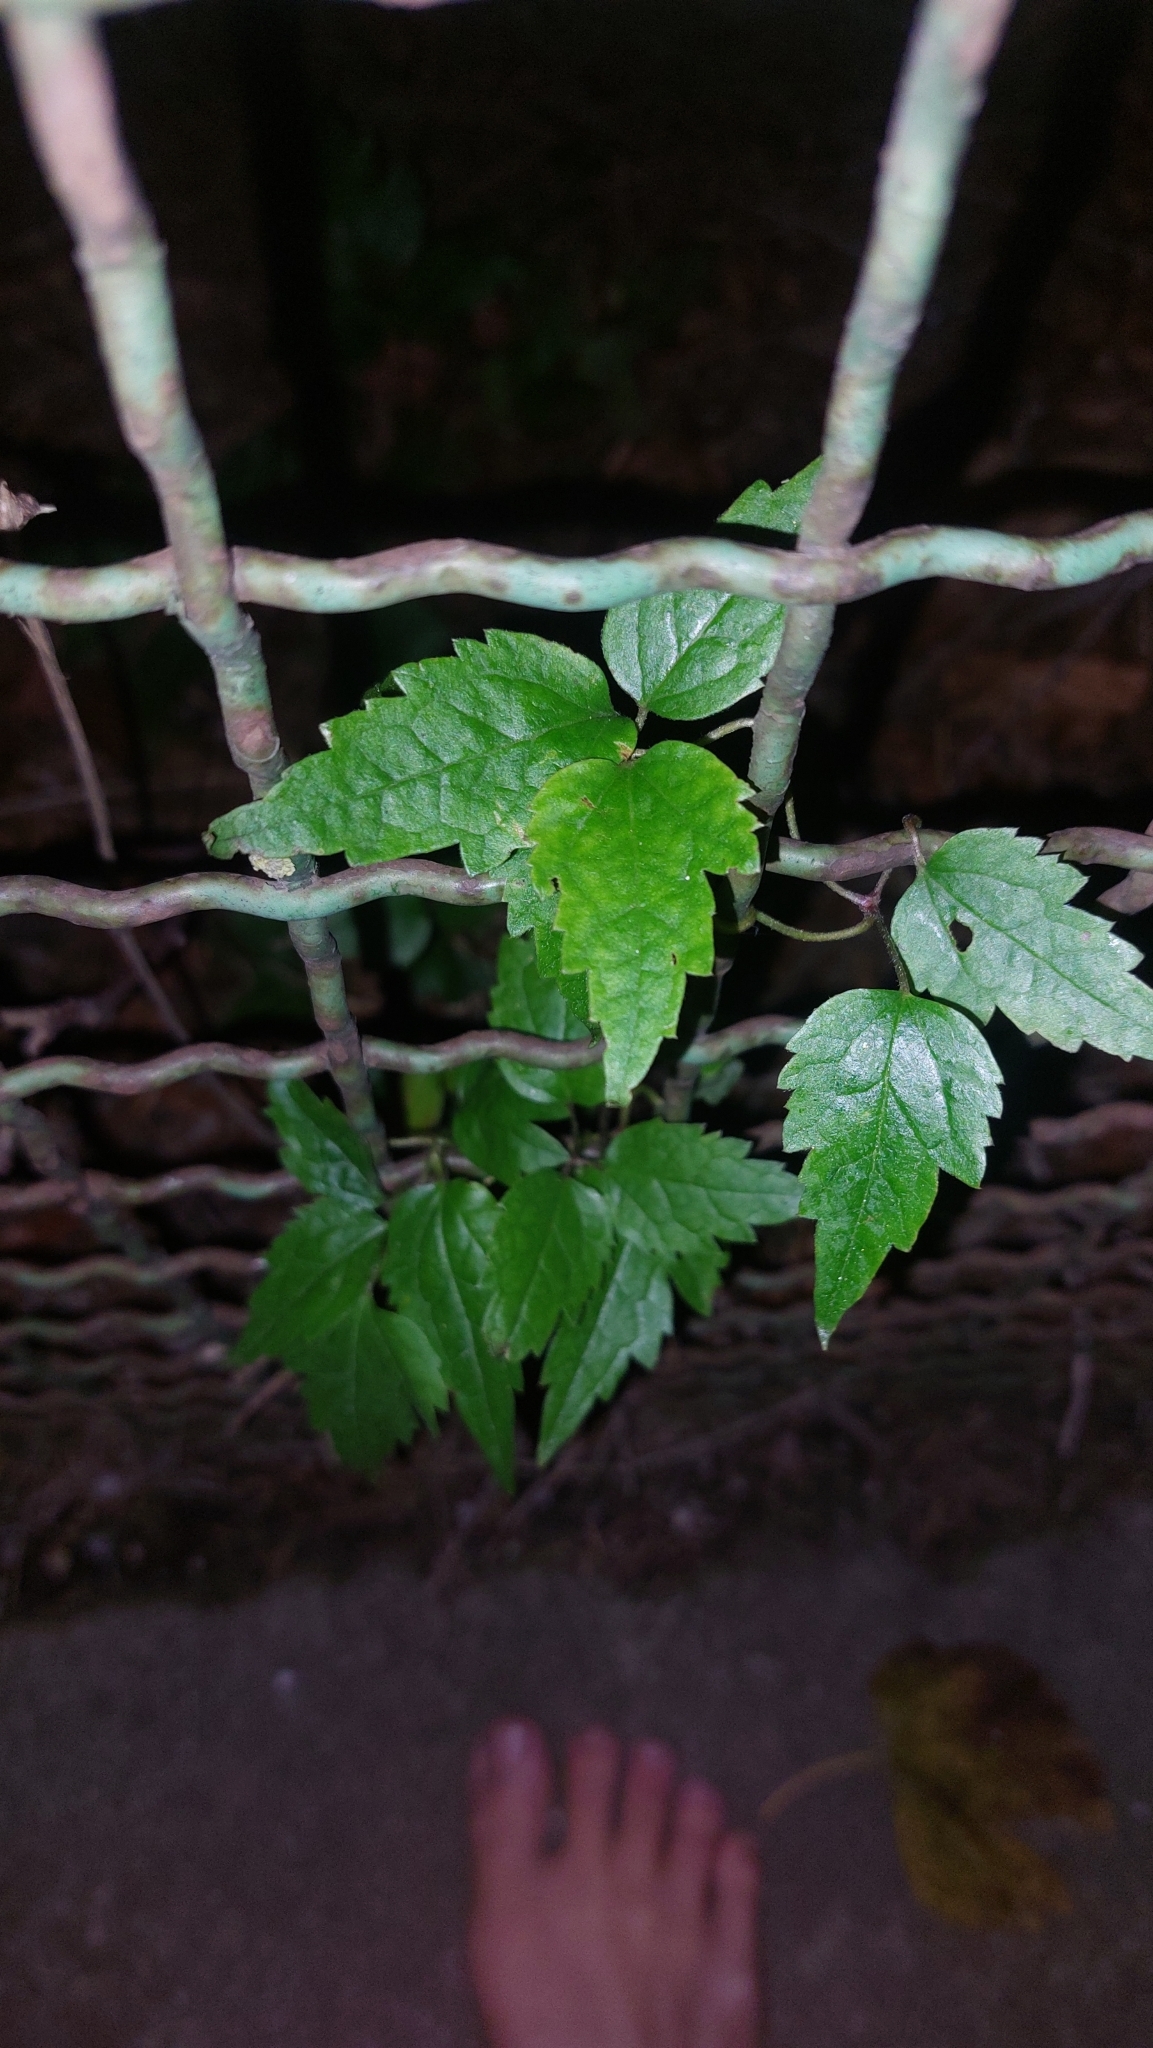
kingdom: Plantae
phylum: Tracheophyta
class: Magnoliopsida
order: Ranunculales
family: Ranunculaceae
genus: Clematis
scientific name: Clematis vitalba
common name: Evergreen clematis
